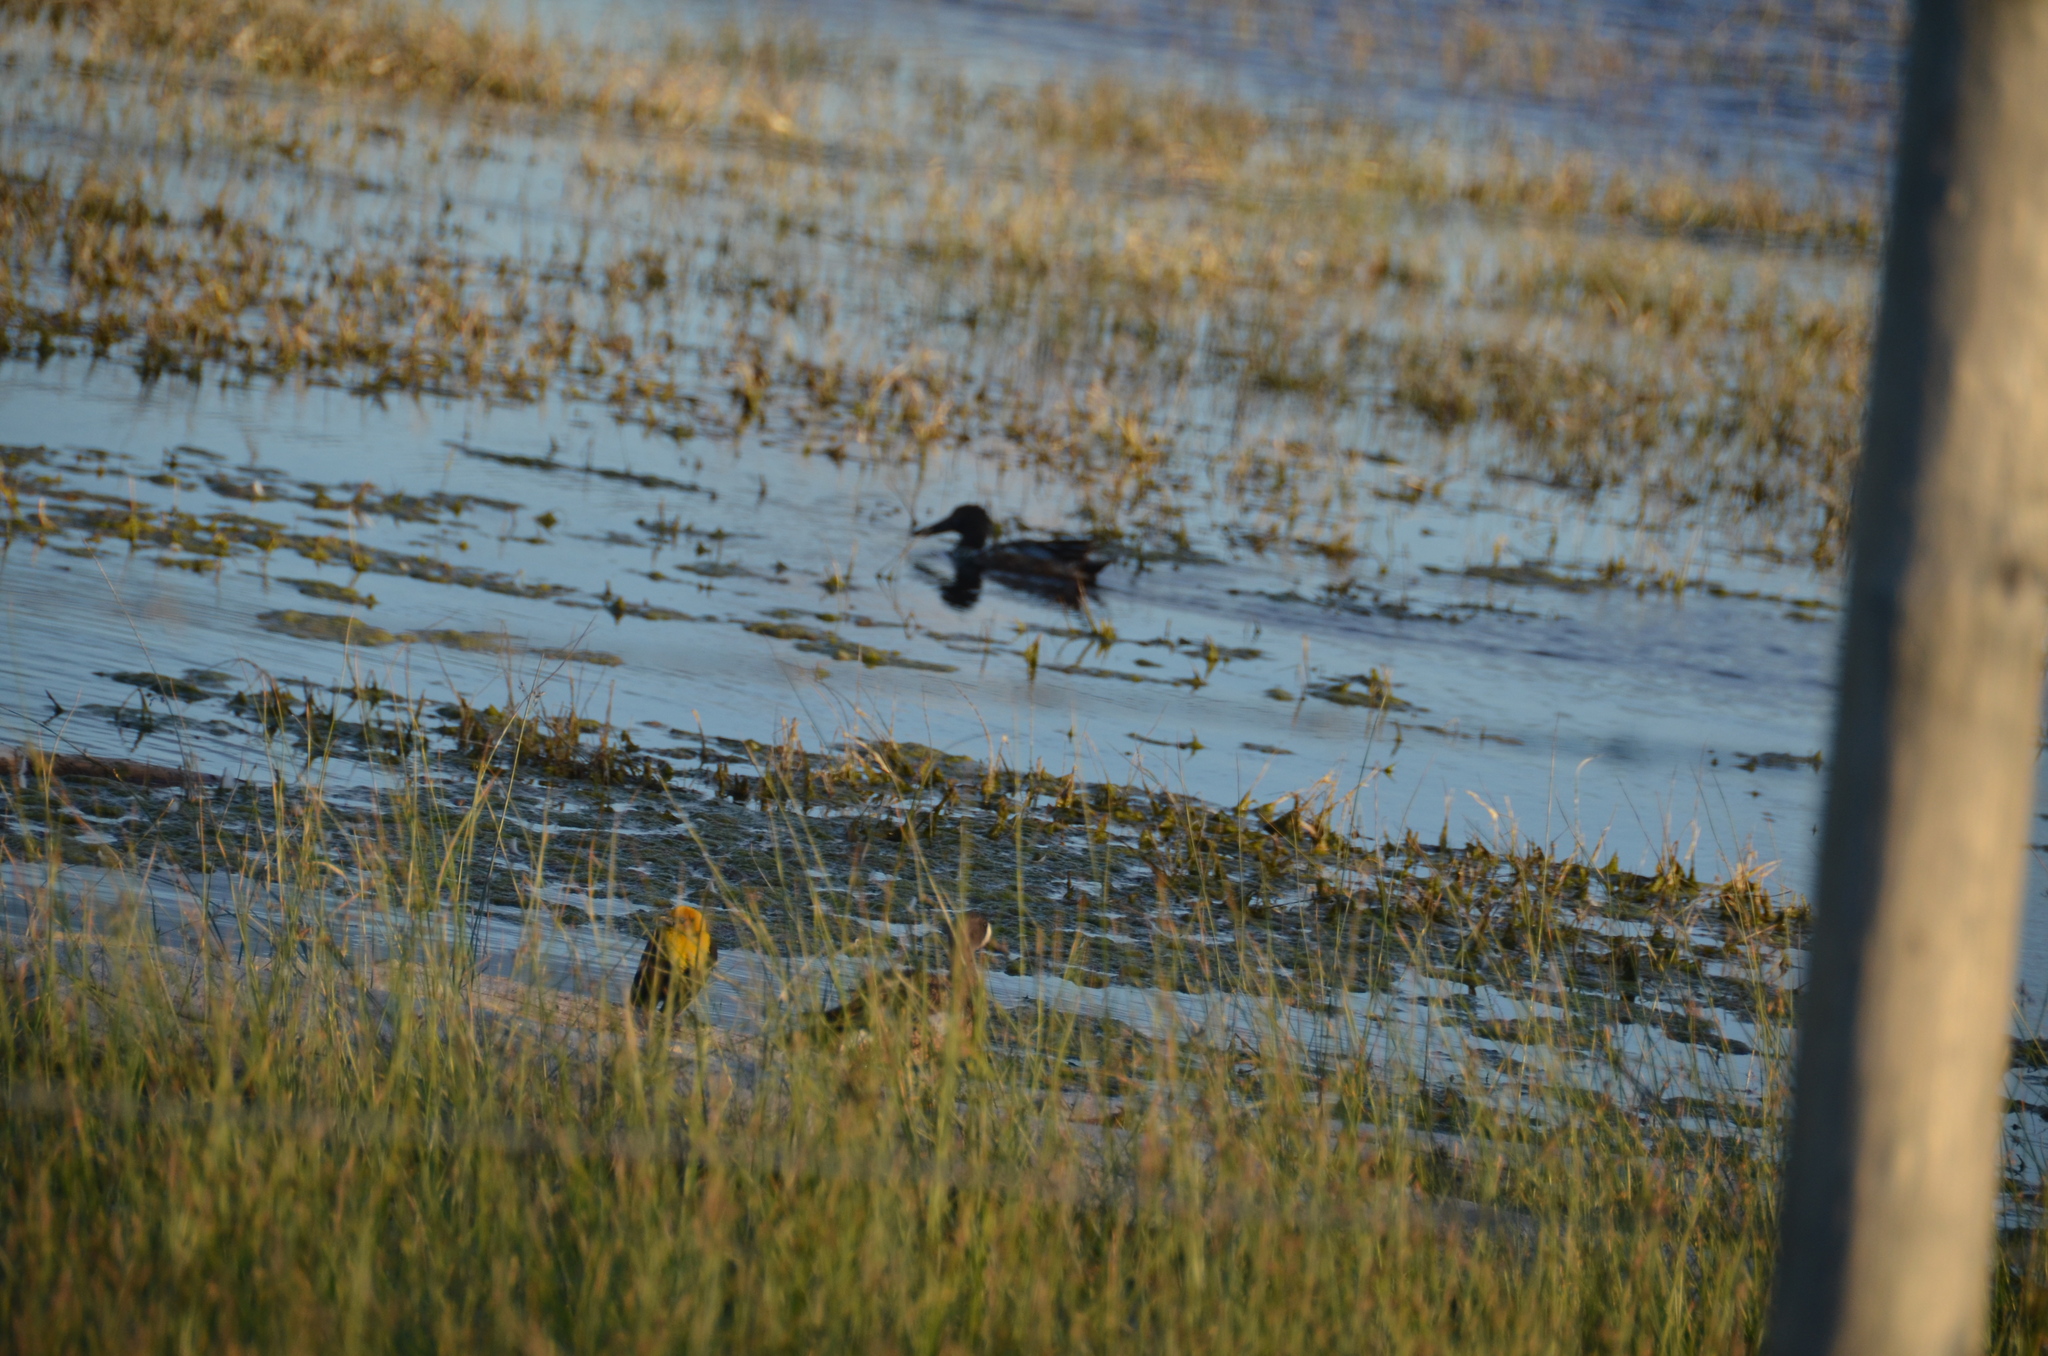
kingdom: Animalia
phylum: Chordata
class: Aves
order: Anseriformes
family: Anatidae
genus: Spatula
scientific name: Spatula discors
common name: Blue-winged teal
